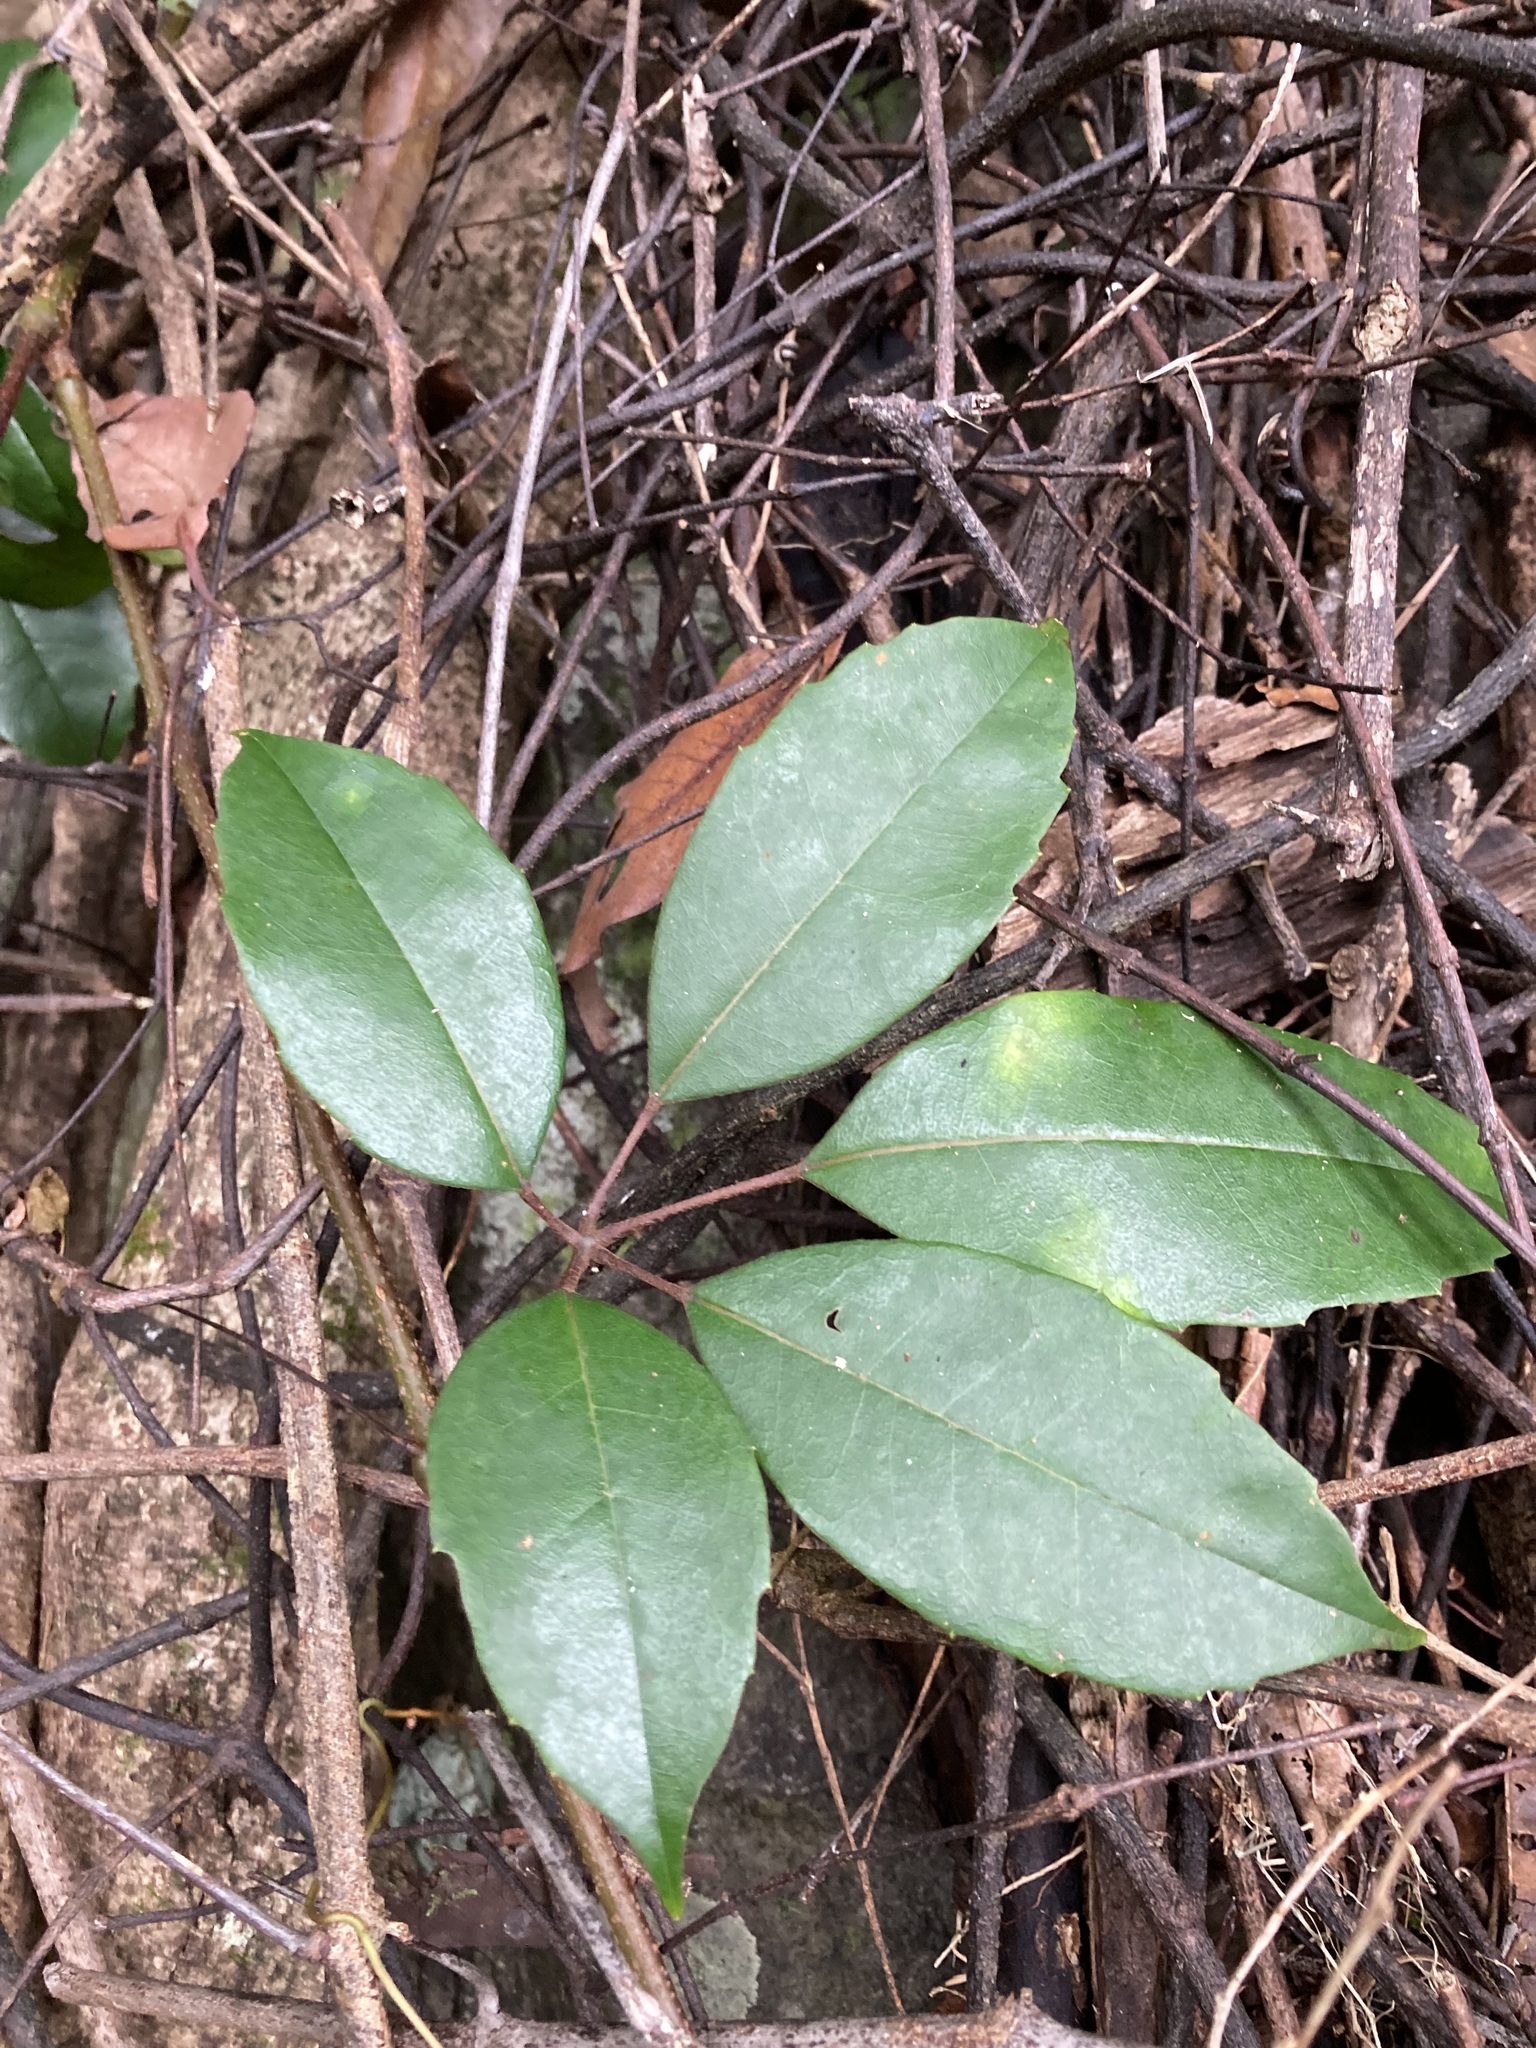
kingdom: Plantae
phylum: Tracheophyta
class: Magnoliopsida
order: Vitales
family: Vitaceae
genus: Nothocissus
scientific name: Nothocissus hypoglauca
